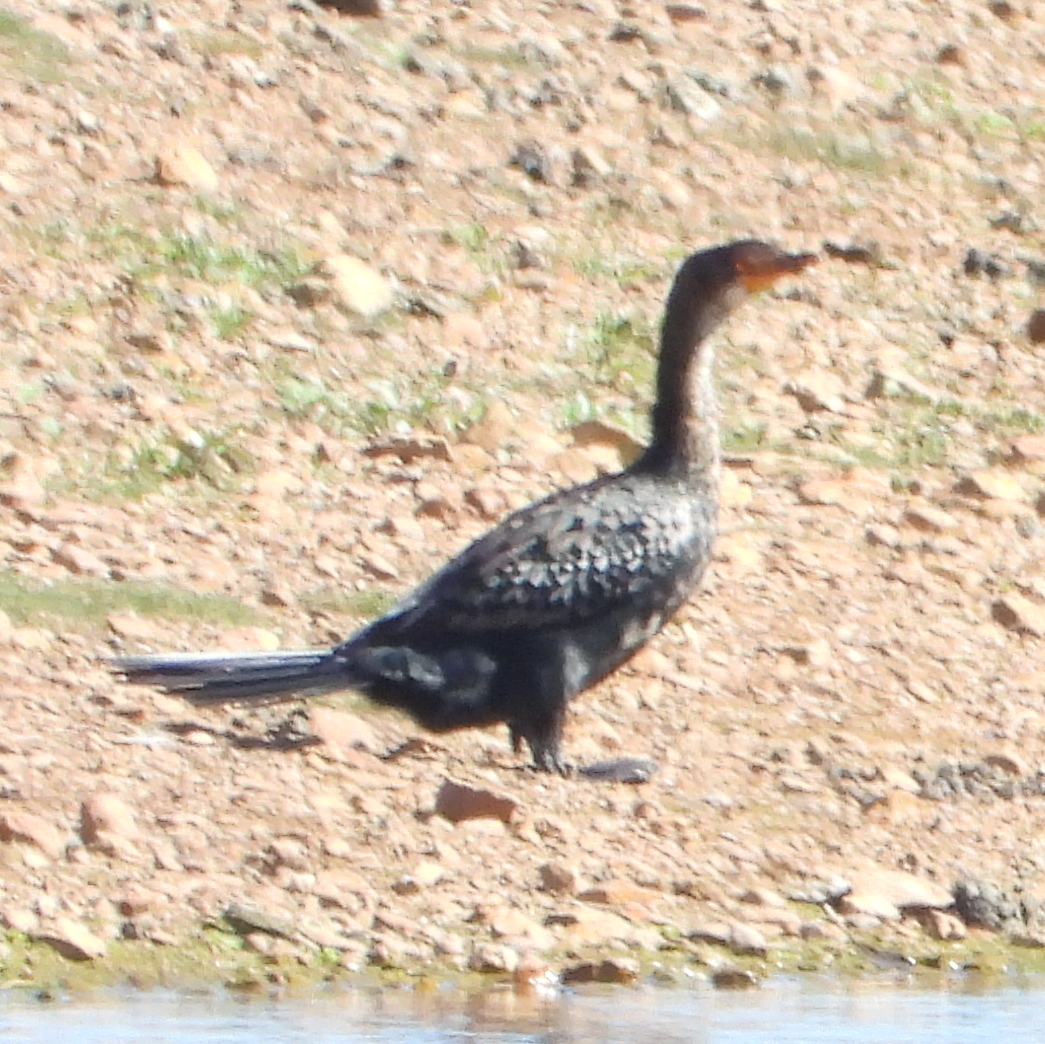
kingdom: Animalia
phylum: Chordata
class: Aves
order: Suliformes
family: Phalacrocoracidae
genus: Microcarbo
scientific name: Microcarbo africanus
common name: Long-tailed cormorant
